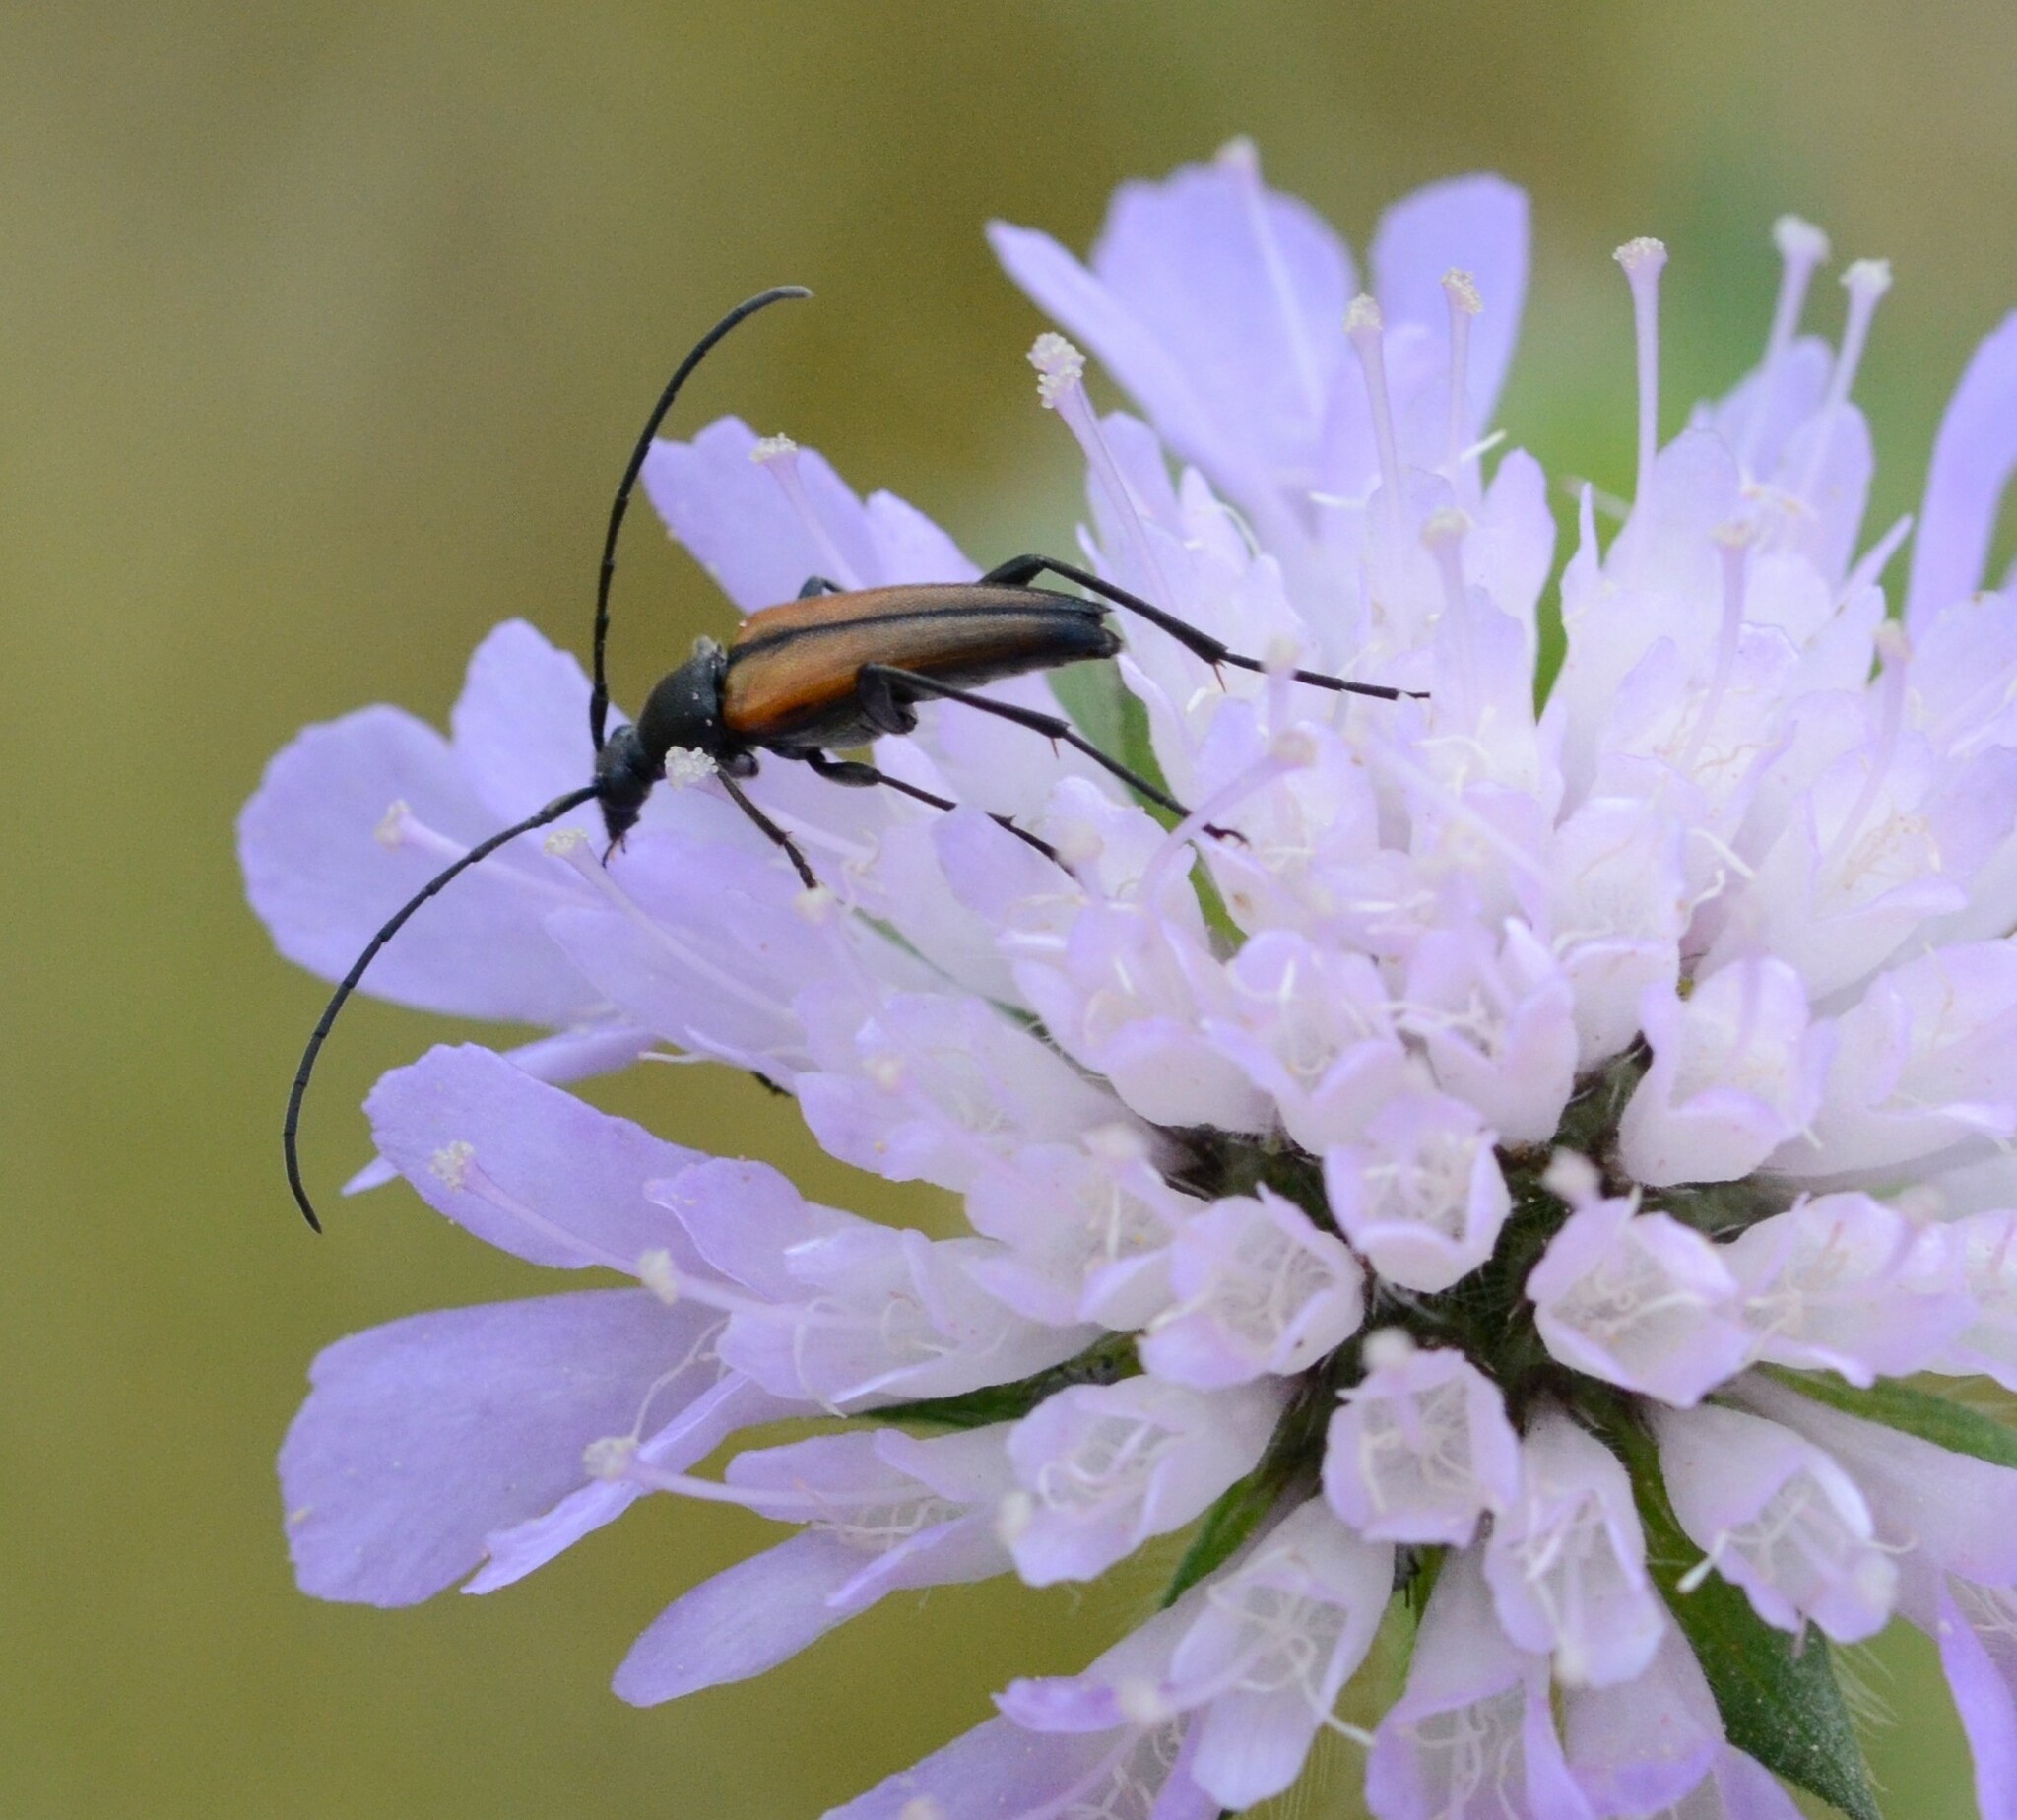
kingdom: Animalia
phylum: Arthropoda
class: Insecta
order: Coleoptera
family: Cerambycidae
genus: Stenurella
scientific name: Stenurella melanura
